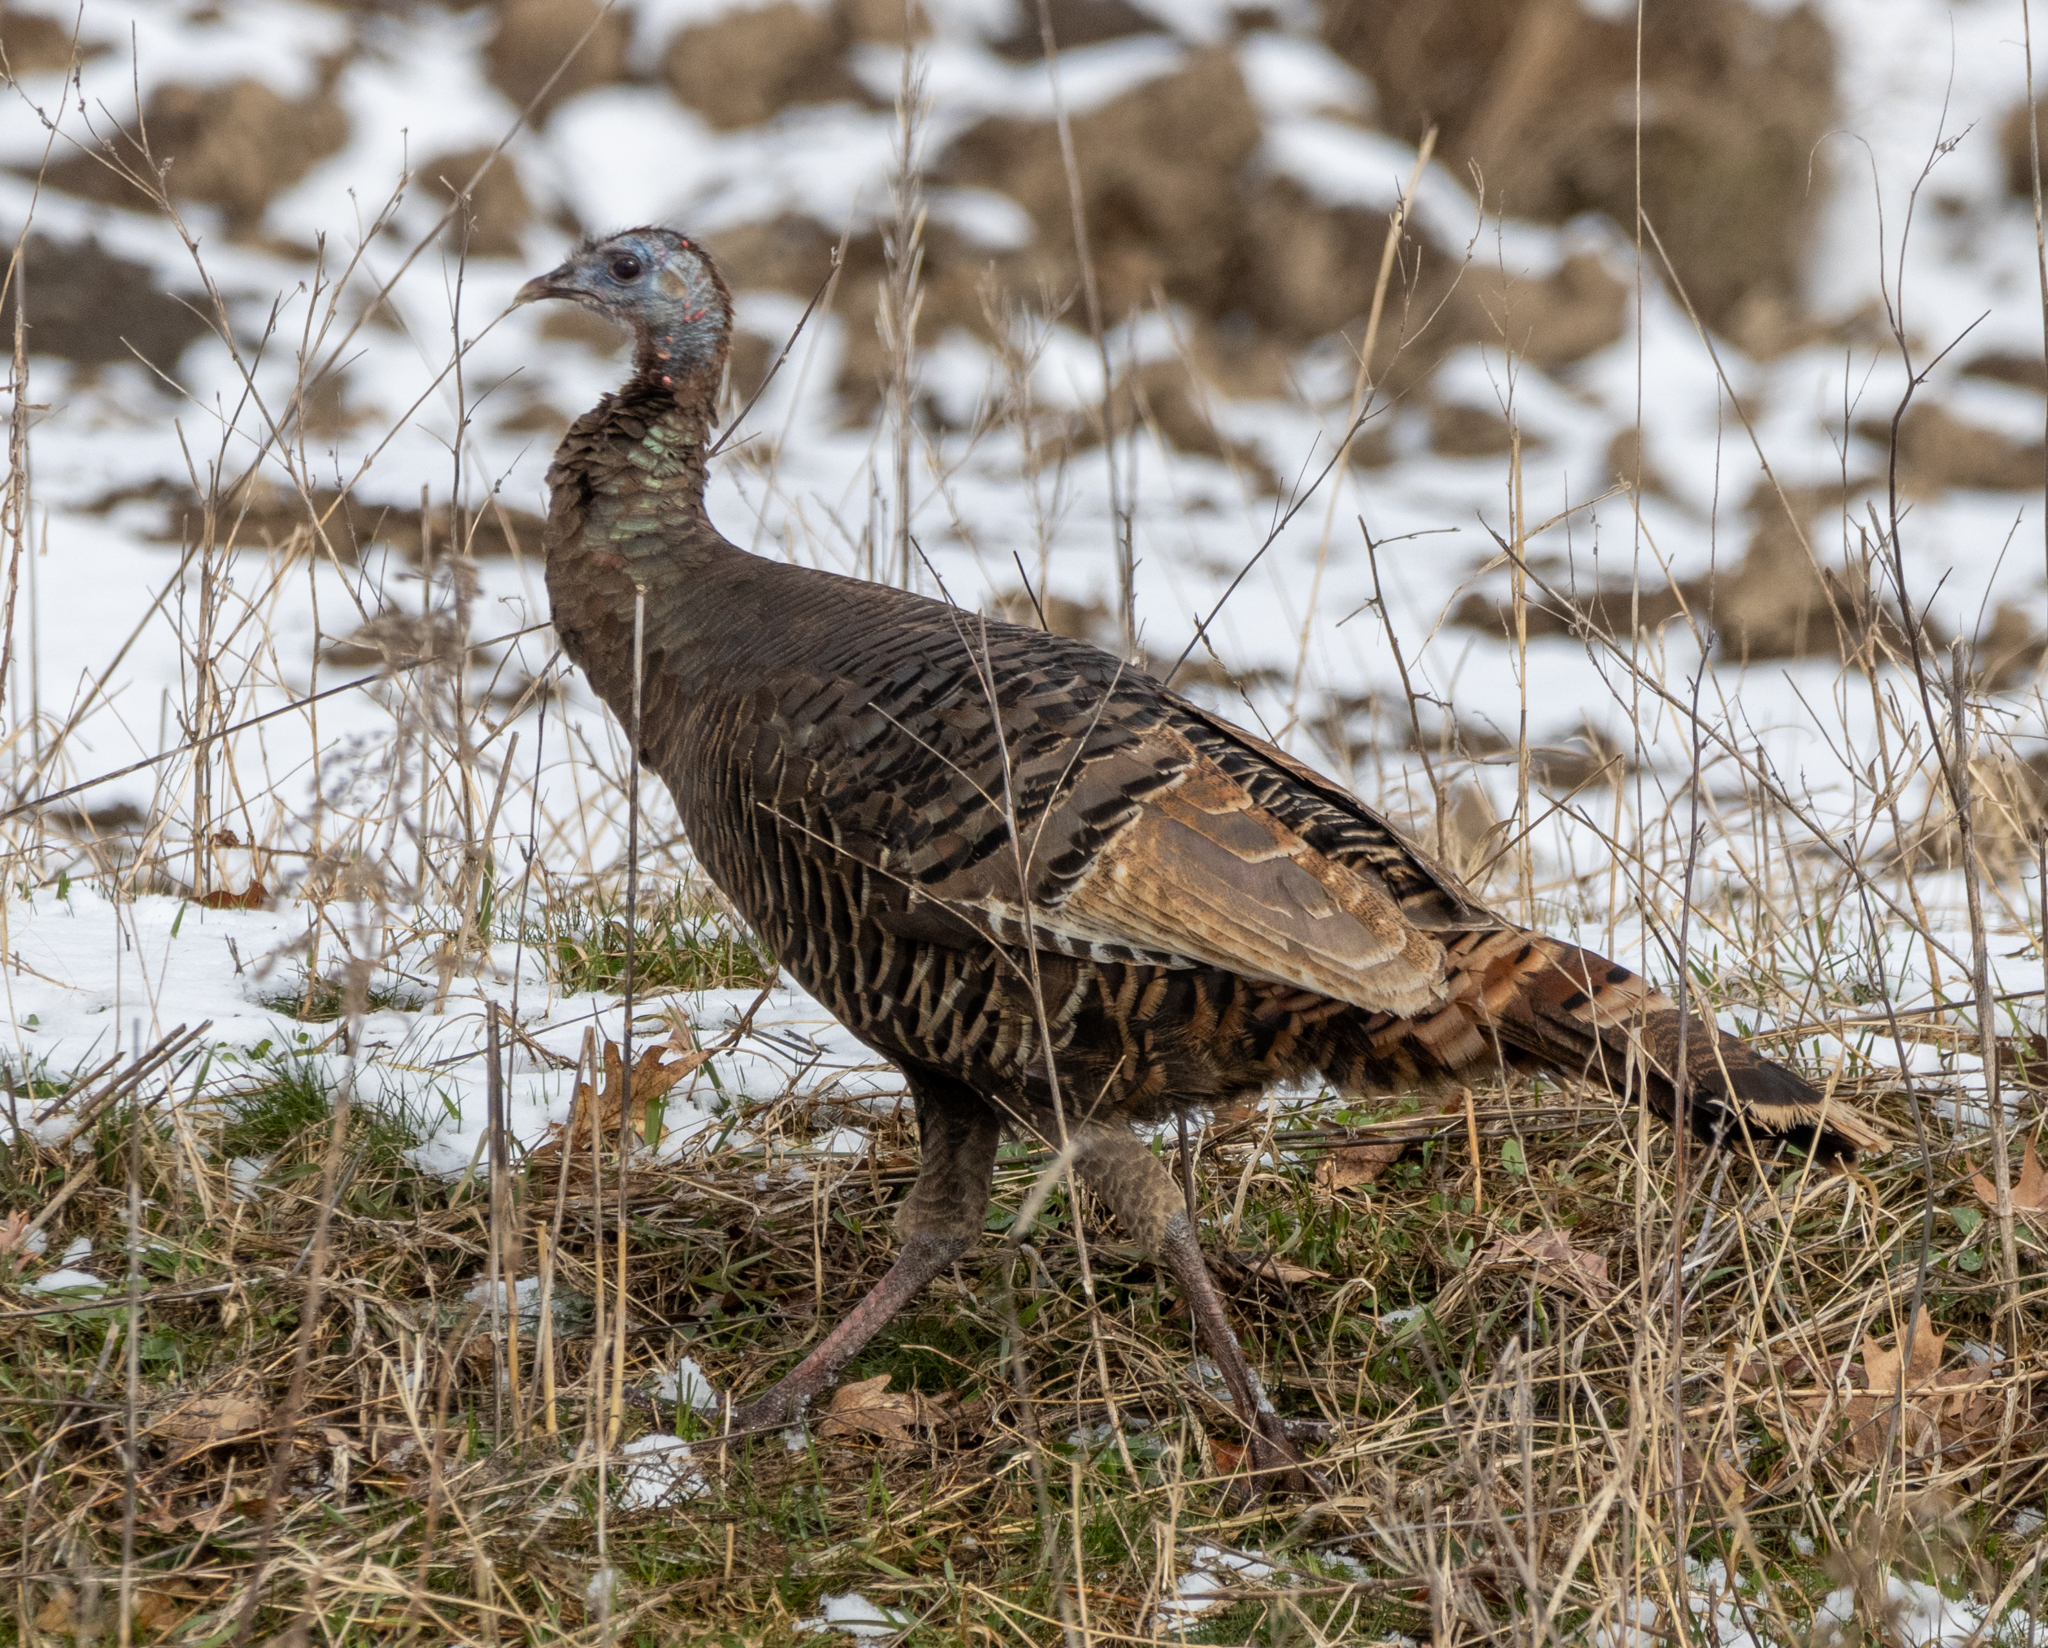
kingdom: Animalia
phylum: Chordata
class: Aves
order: Galliformes
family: Phasianidae
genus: Meleagris
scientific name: Meleagris gallopavo
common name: Wild turkey
